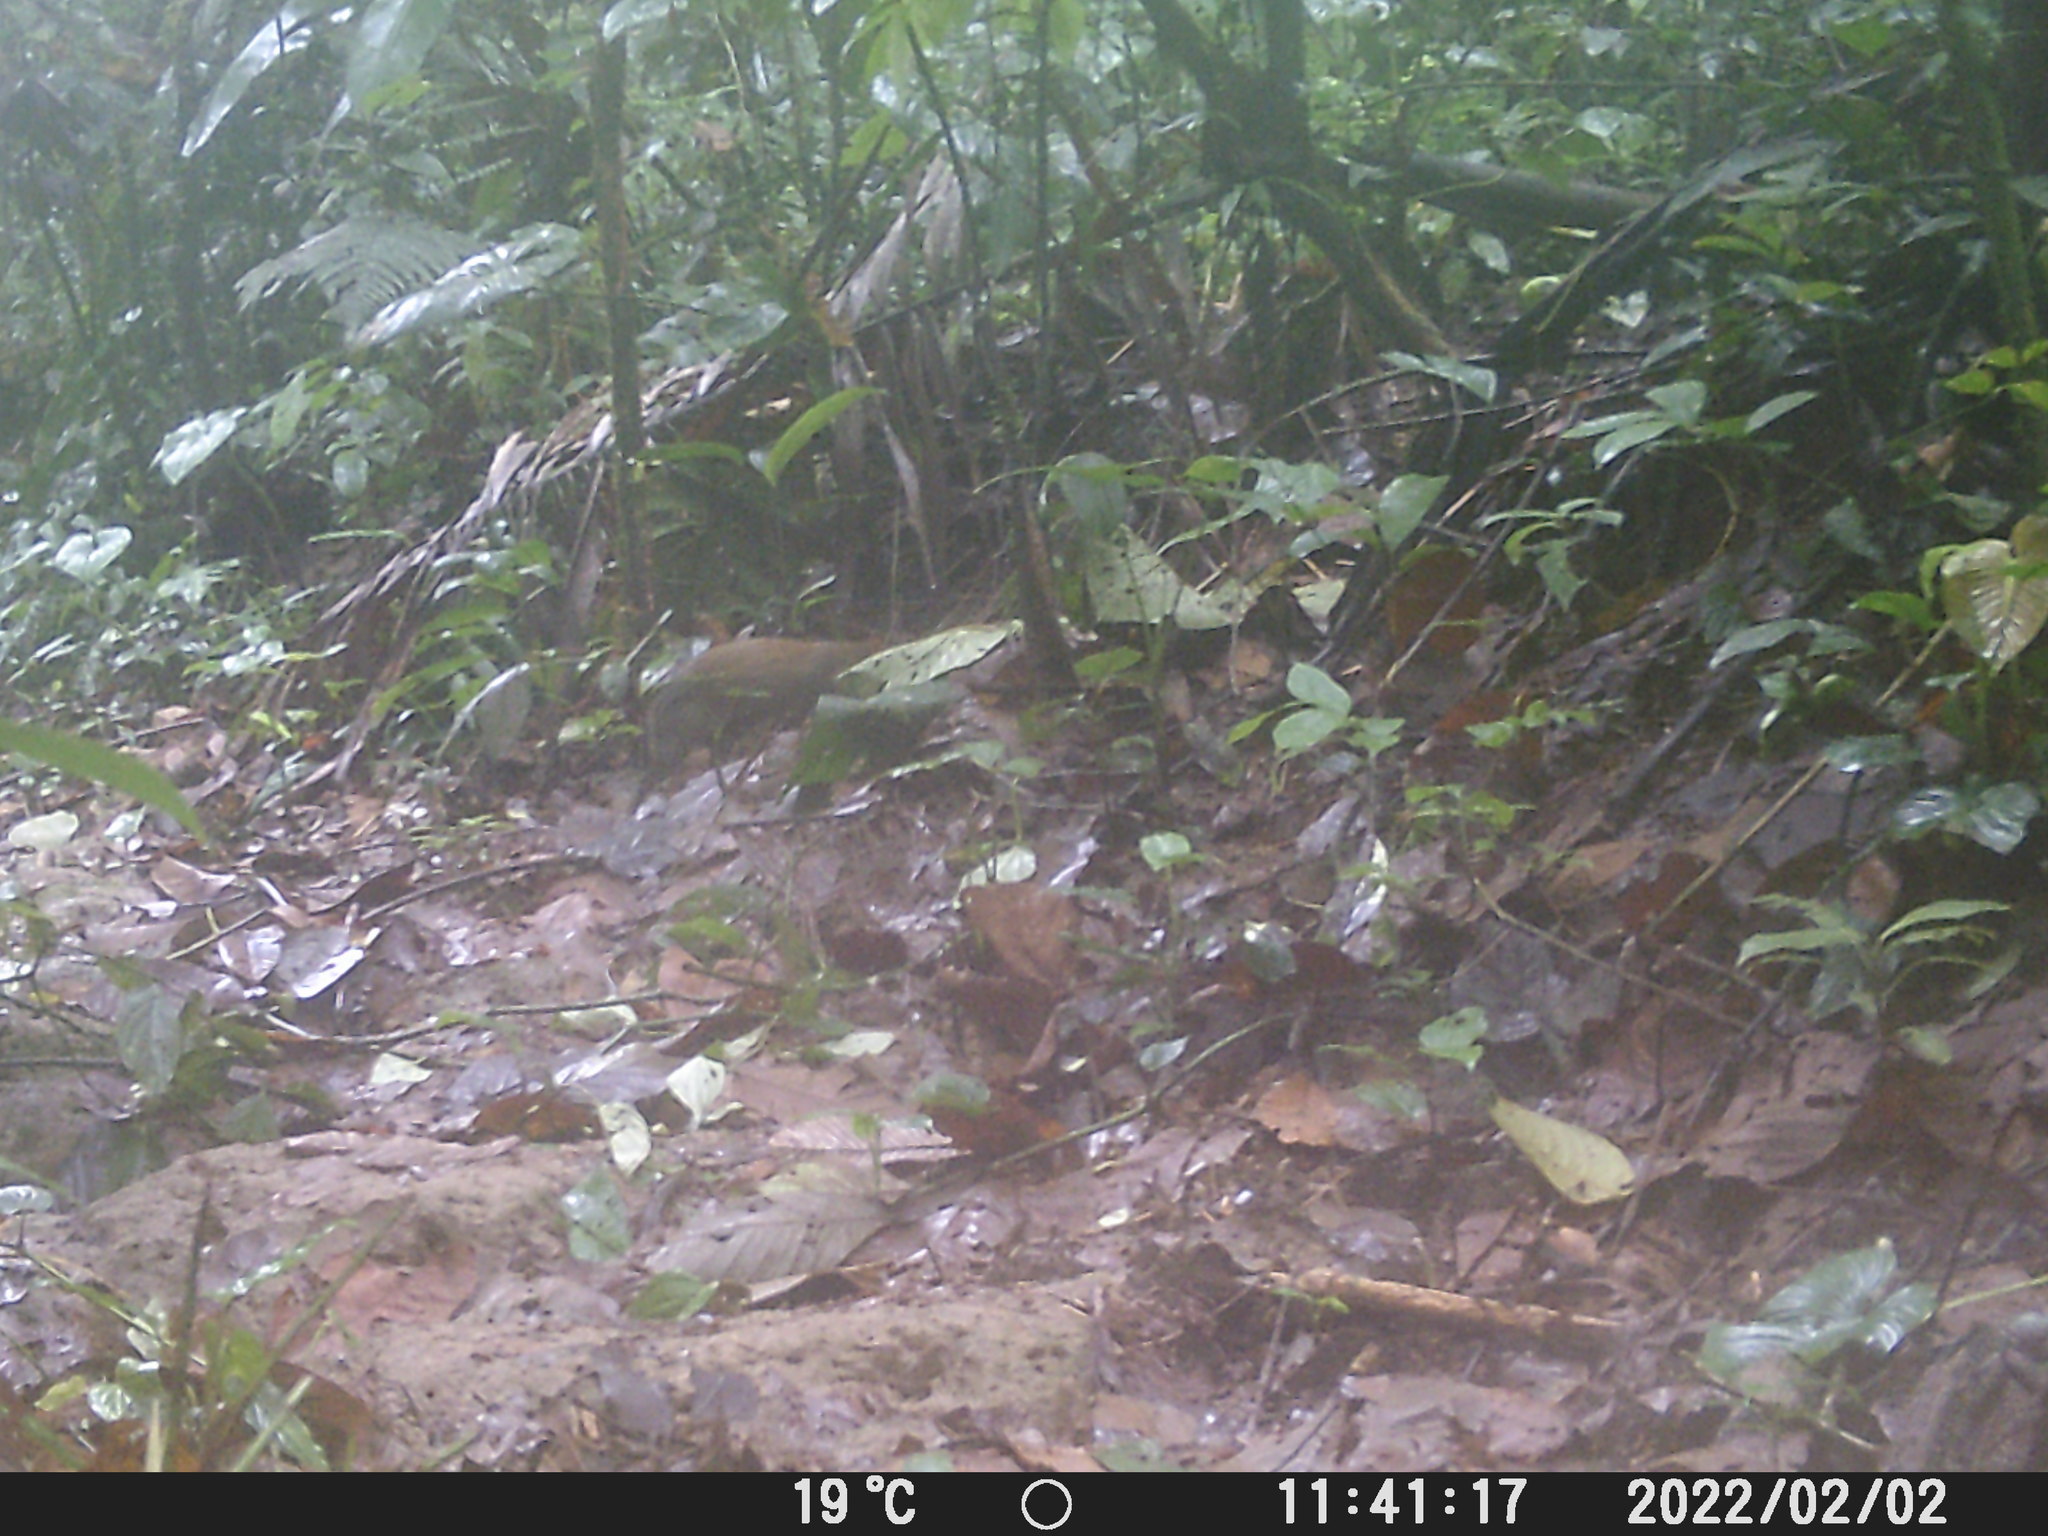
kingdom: Animalia
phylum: Chordata
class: Mammalia
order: Rodentia
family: Dasyproctidae
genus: Dasyprocta
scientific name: Dasyprocta punctata
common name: Central american agouti
